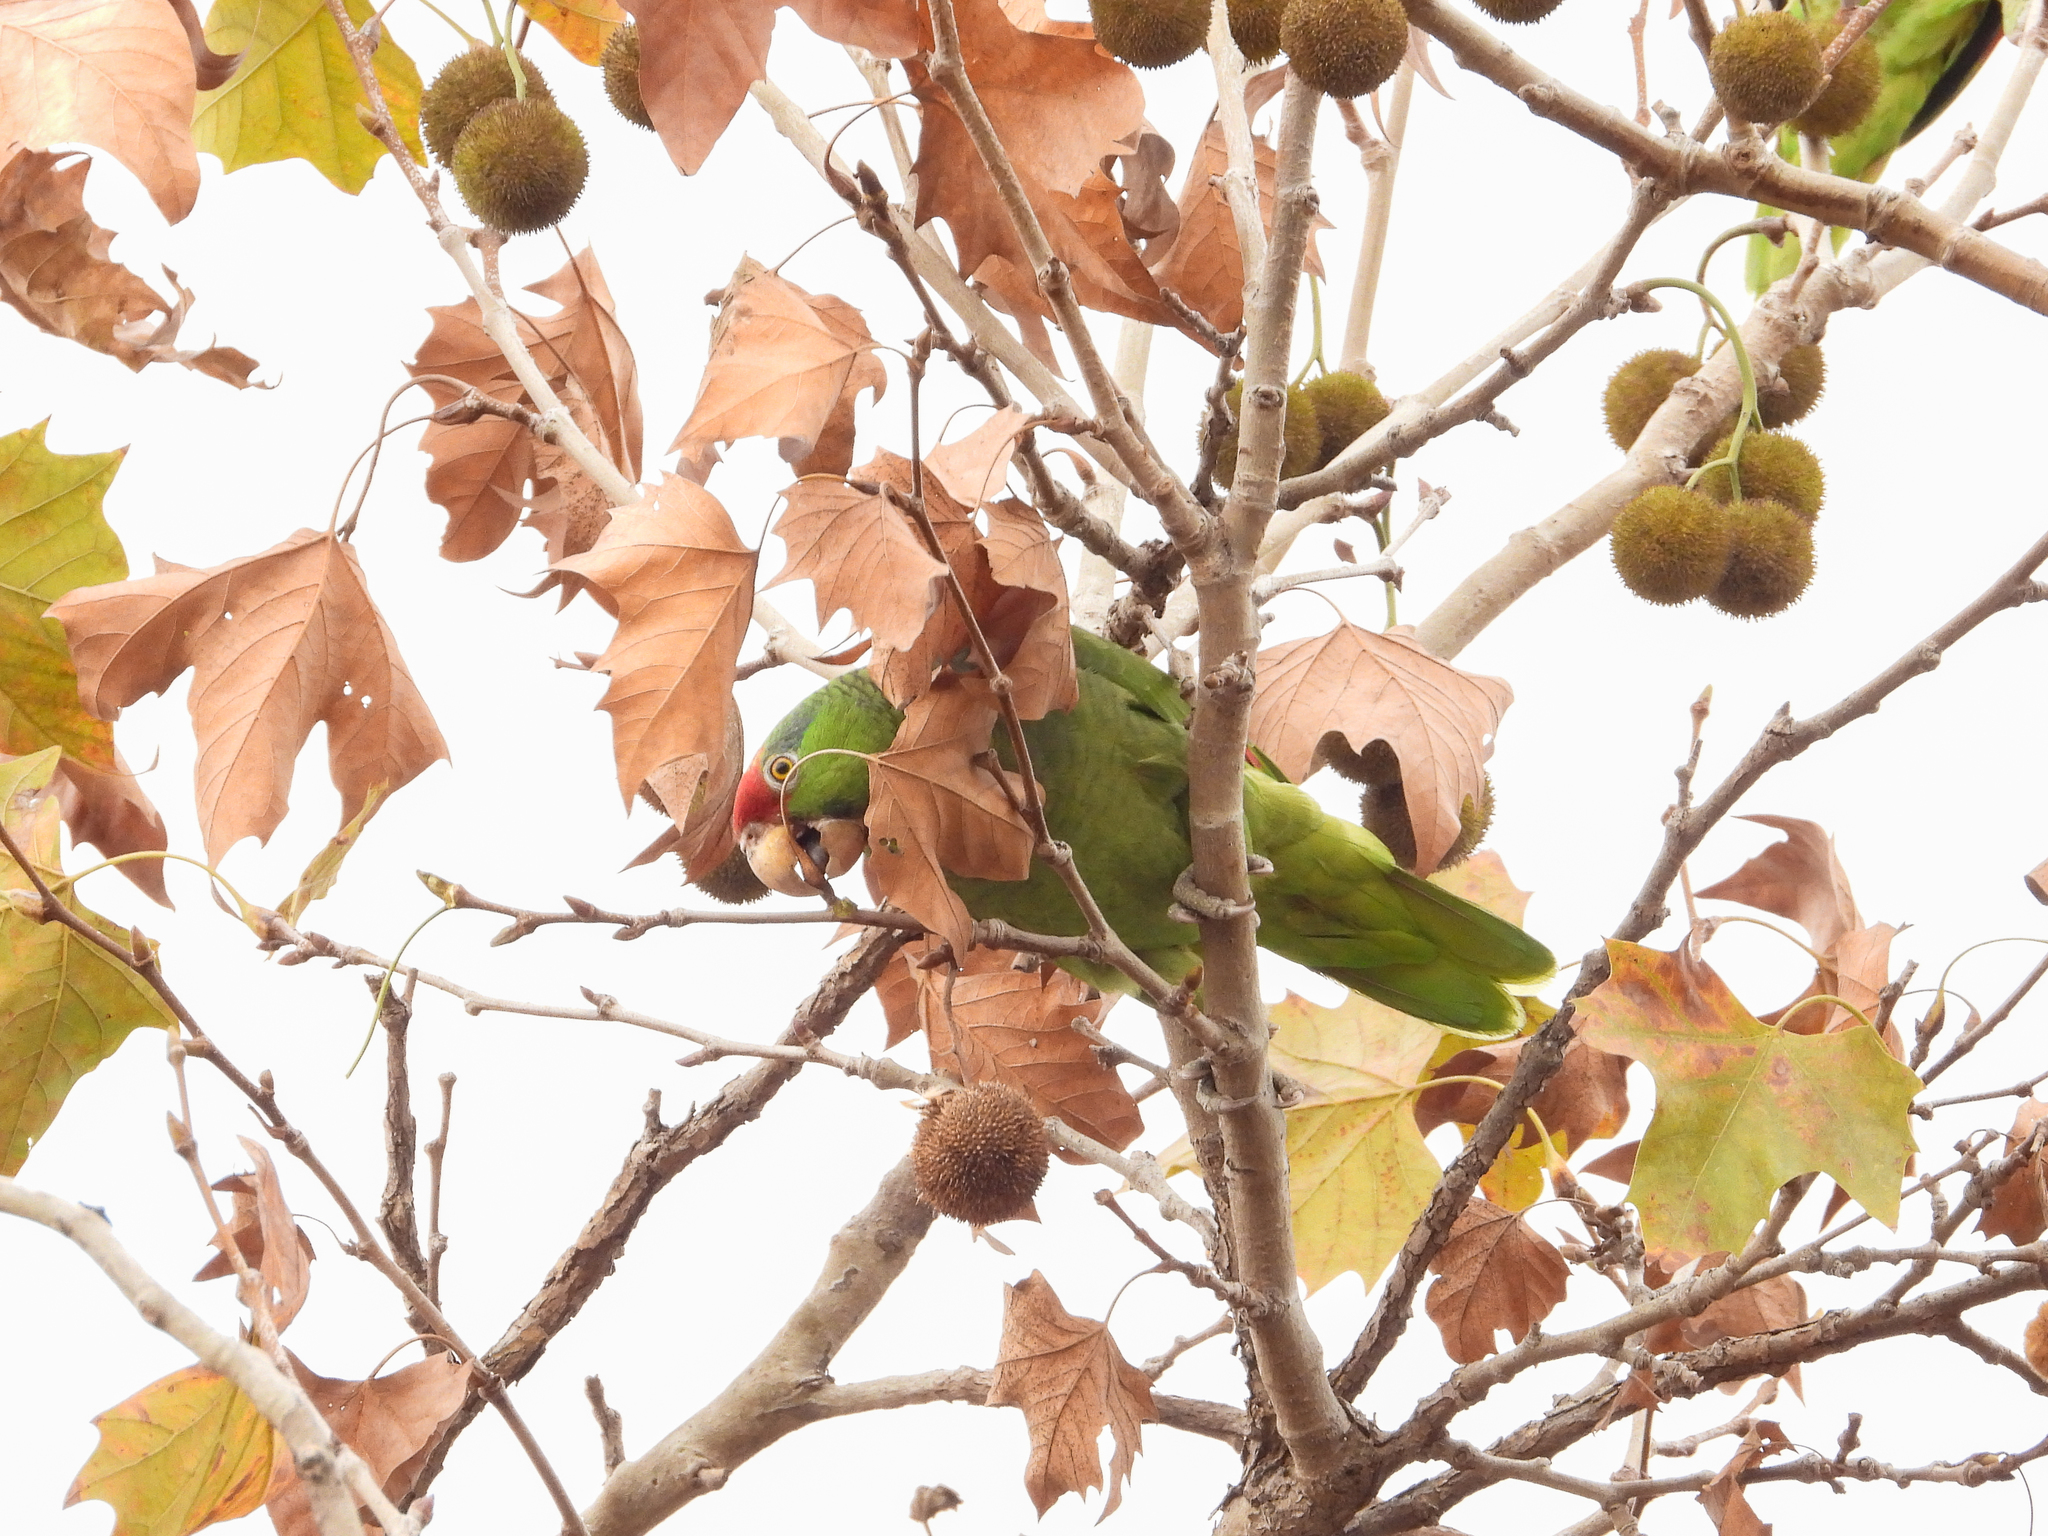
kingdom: Animalia
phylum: Chordata
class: Aves
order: Psittaciformes
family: Psittacidae
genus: Amazona
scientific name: Amazona viridigenalis
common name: Red-crowned amazon
